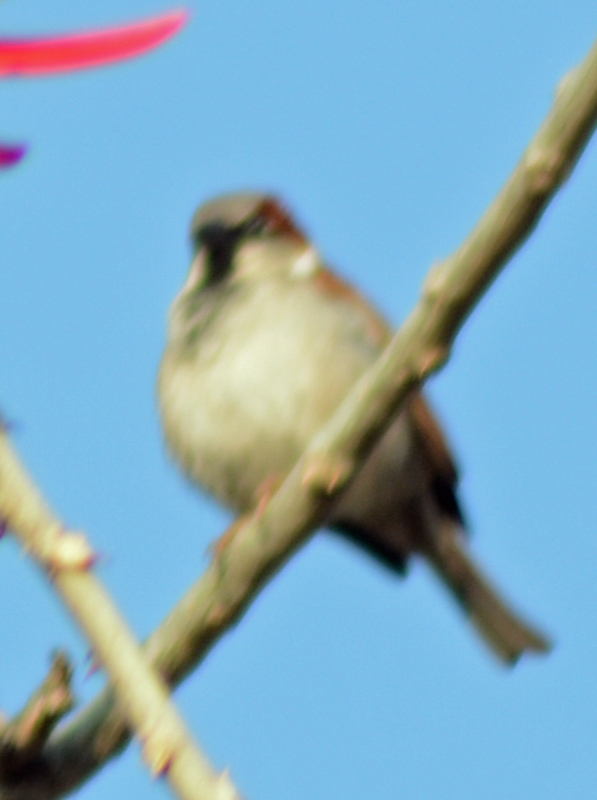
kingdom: Animalia
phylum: Chordata
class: Aves
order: Passeriformes
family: Passeridae
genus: Passer
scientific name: Passer domesticus
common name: House sparrow
